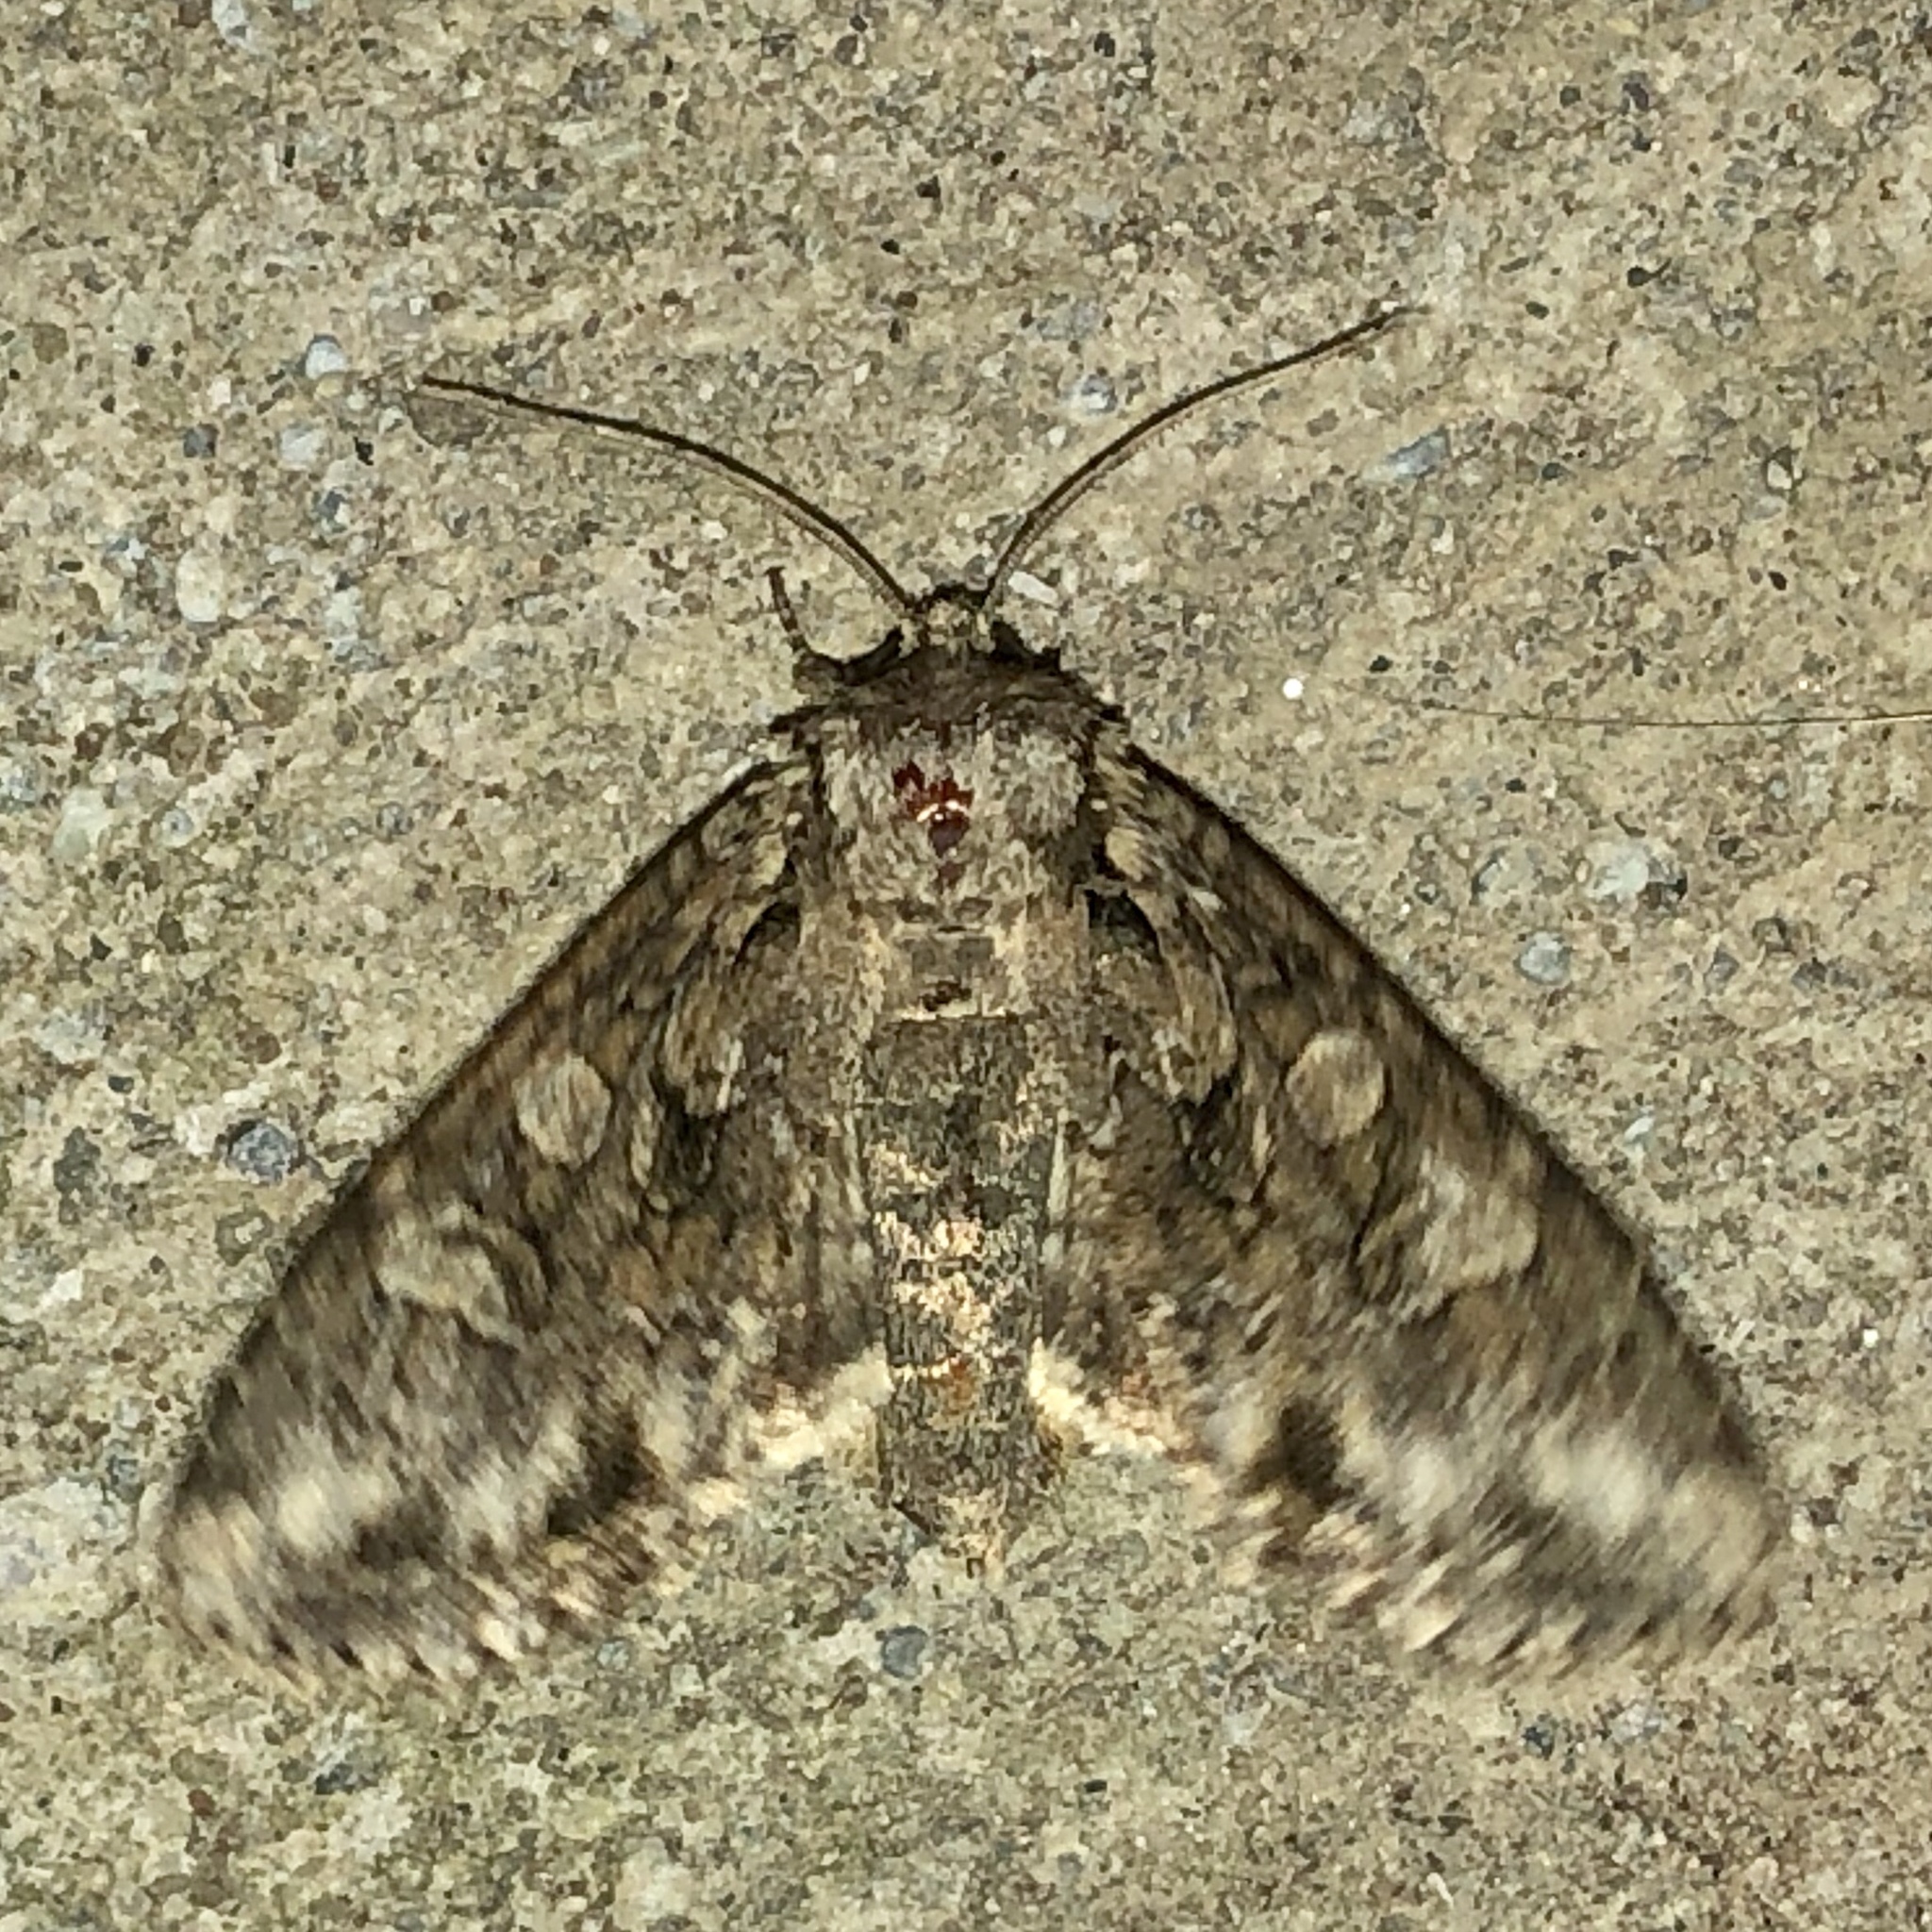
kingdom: Animalia
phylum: Arthropoda
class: Insecta
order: Lepidoptera
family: Noctuidae
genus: Polia
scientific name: Polia imbrifera
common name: Cloudy arches moth
